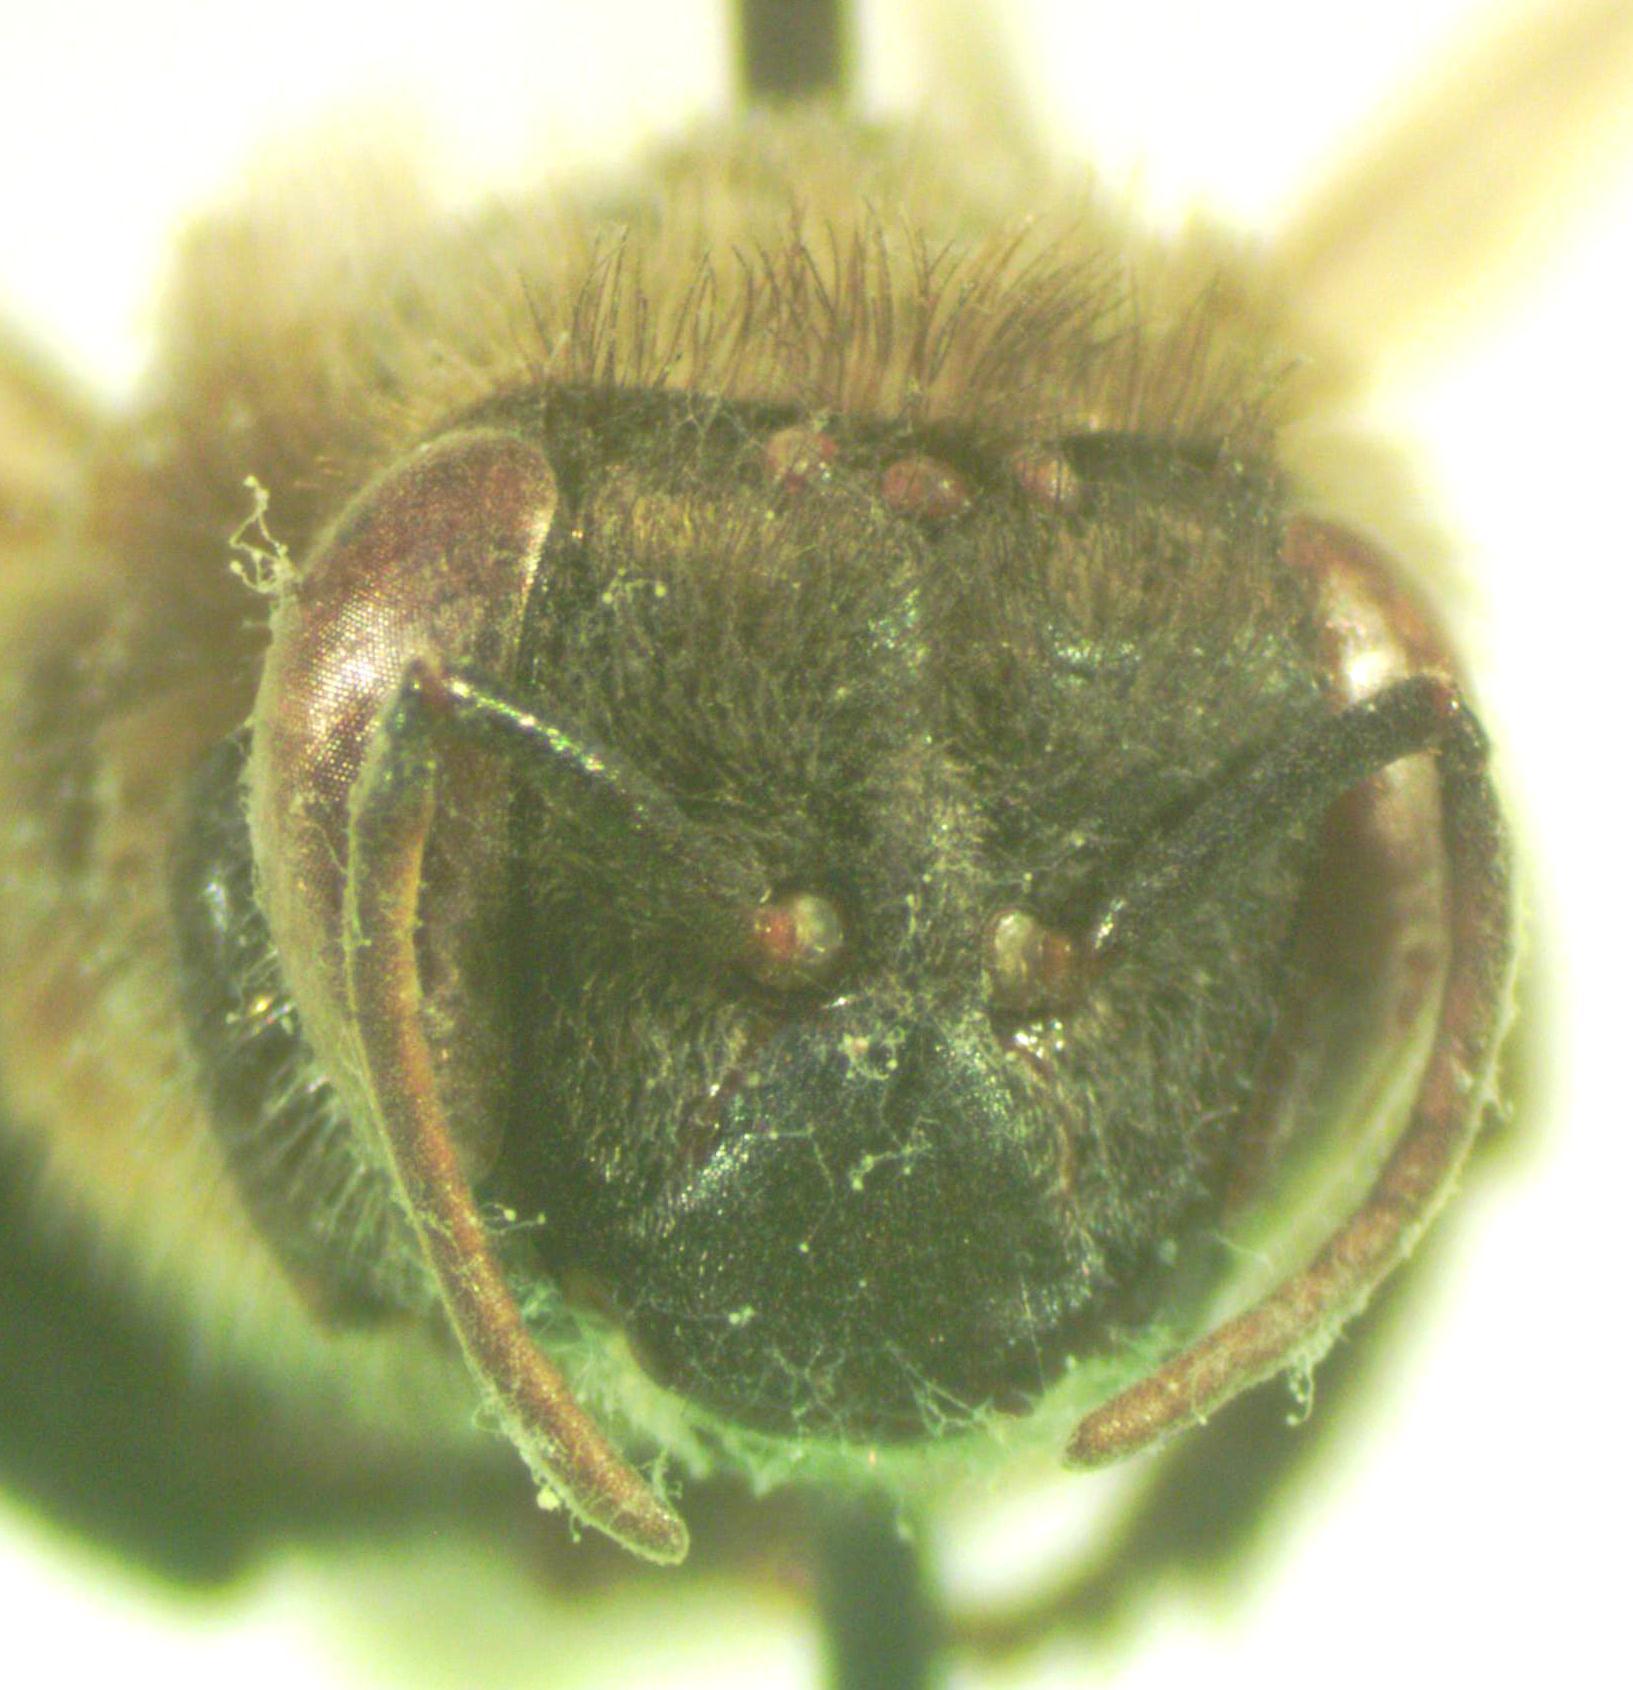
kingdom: Animalia
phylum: Arthropoda
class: Insecta
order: Hymenoptera
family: Apidae
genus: Melipona
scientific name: Melipona costaricensis
